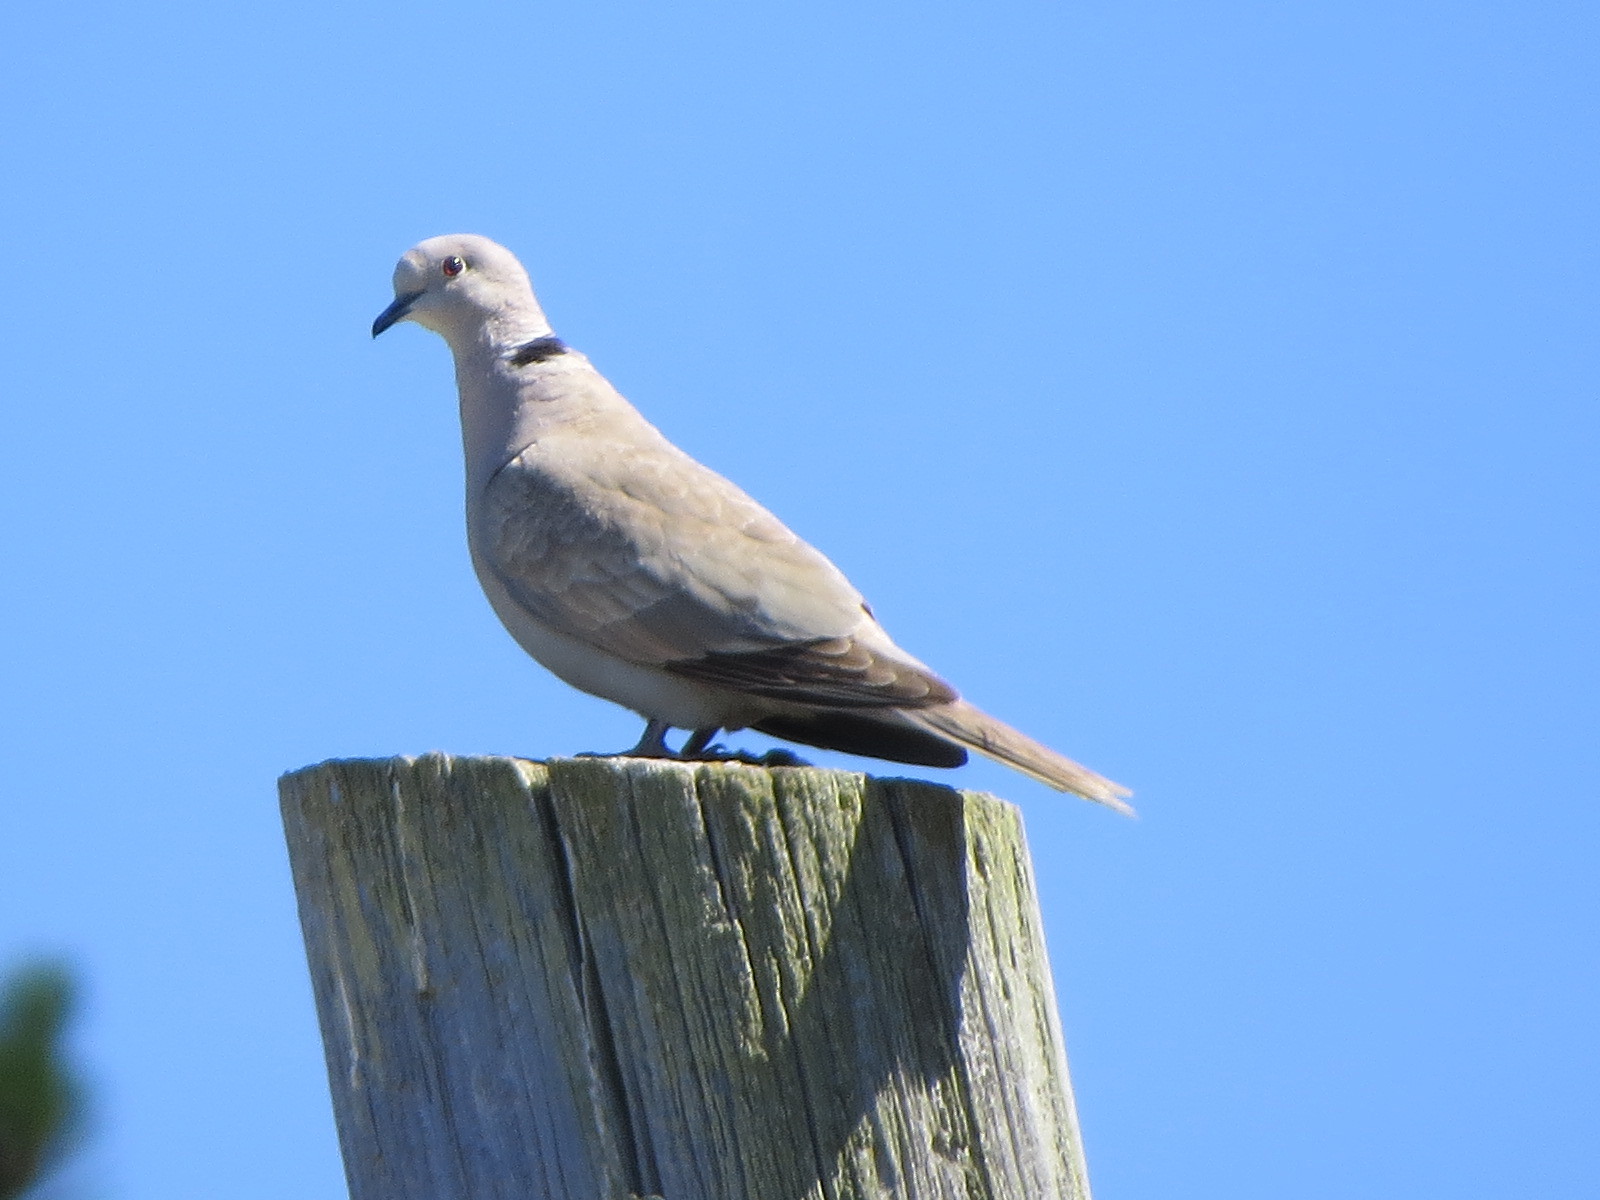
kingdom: Animalia
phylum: Chordata
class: Aves
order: Columbiformes
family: Columbidae
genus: Streptopelia
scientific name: Streptopelia decaocto
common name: Eurasian collared dove
